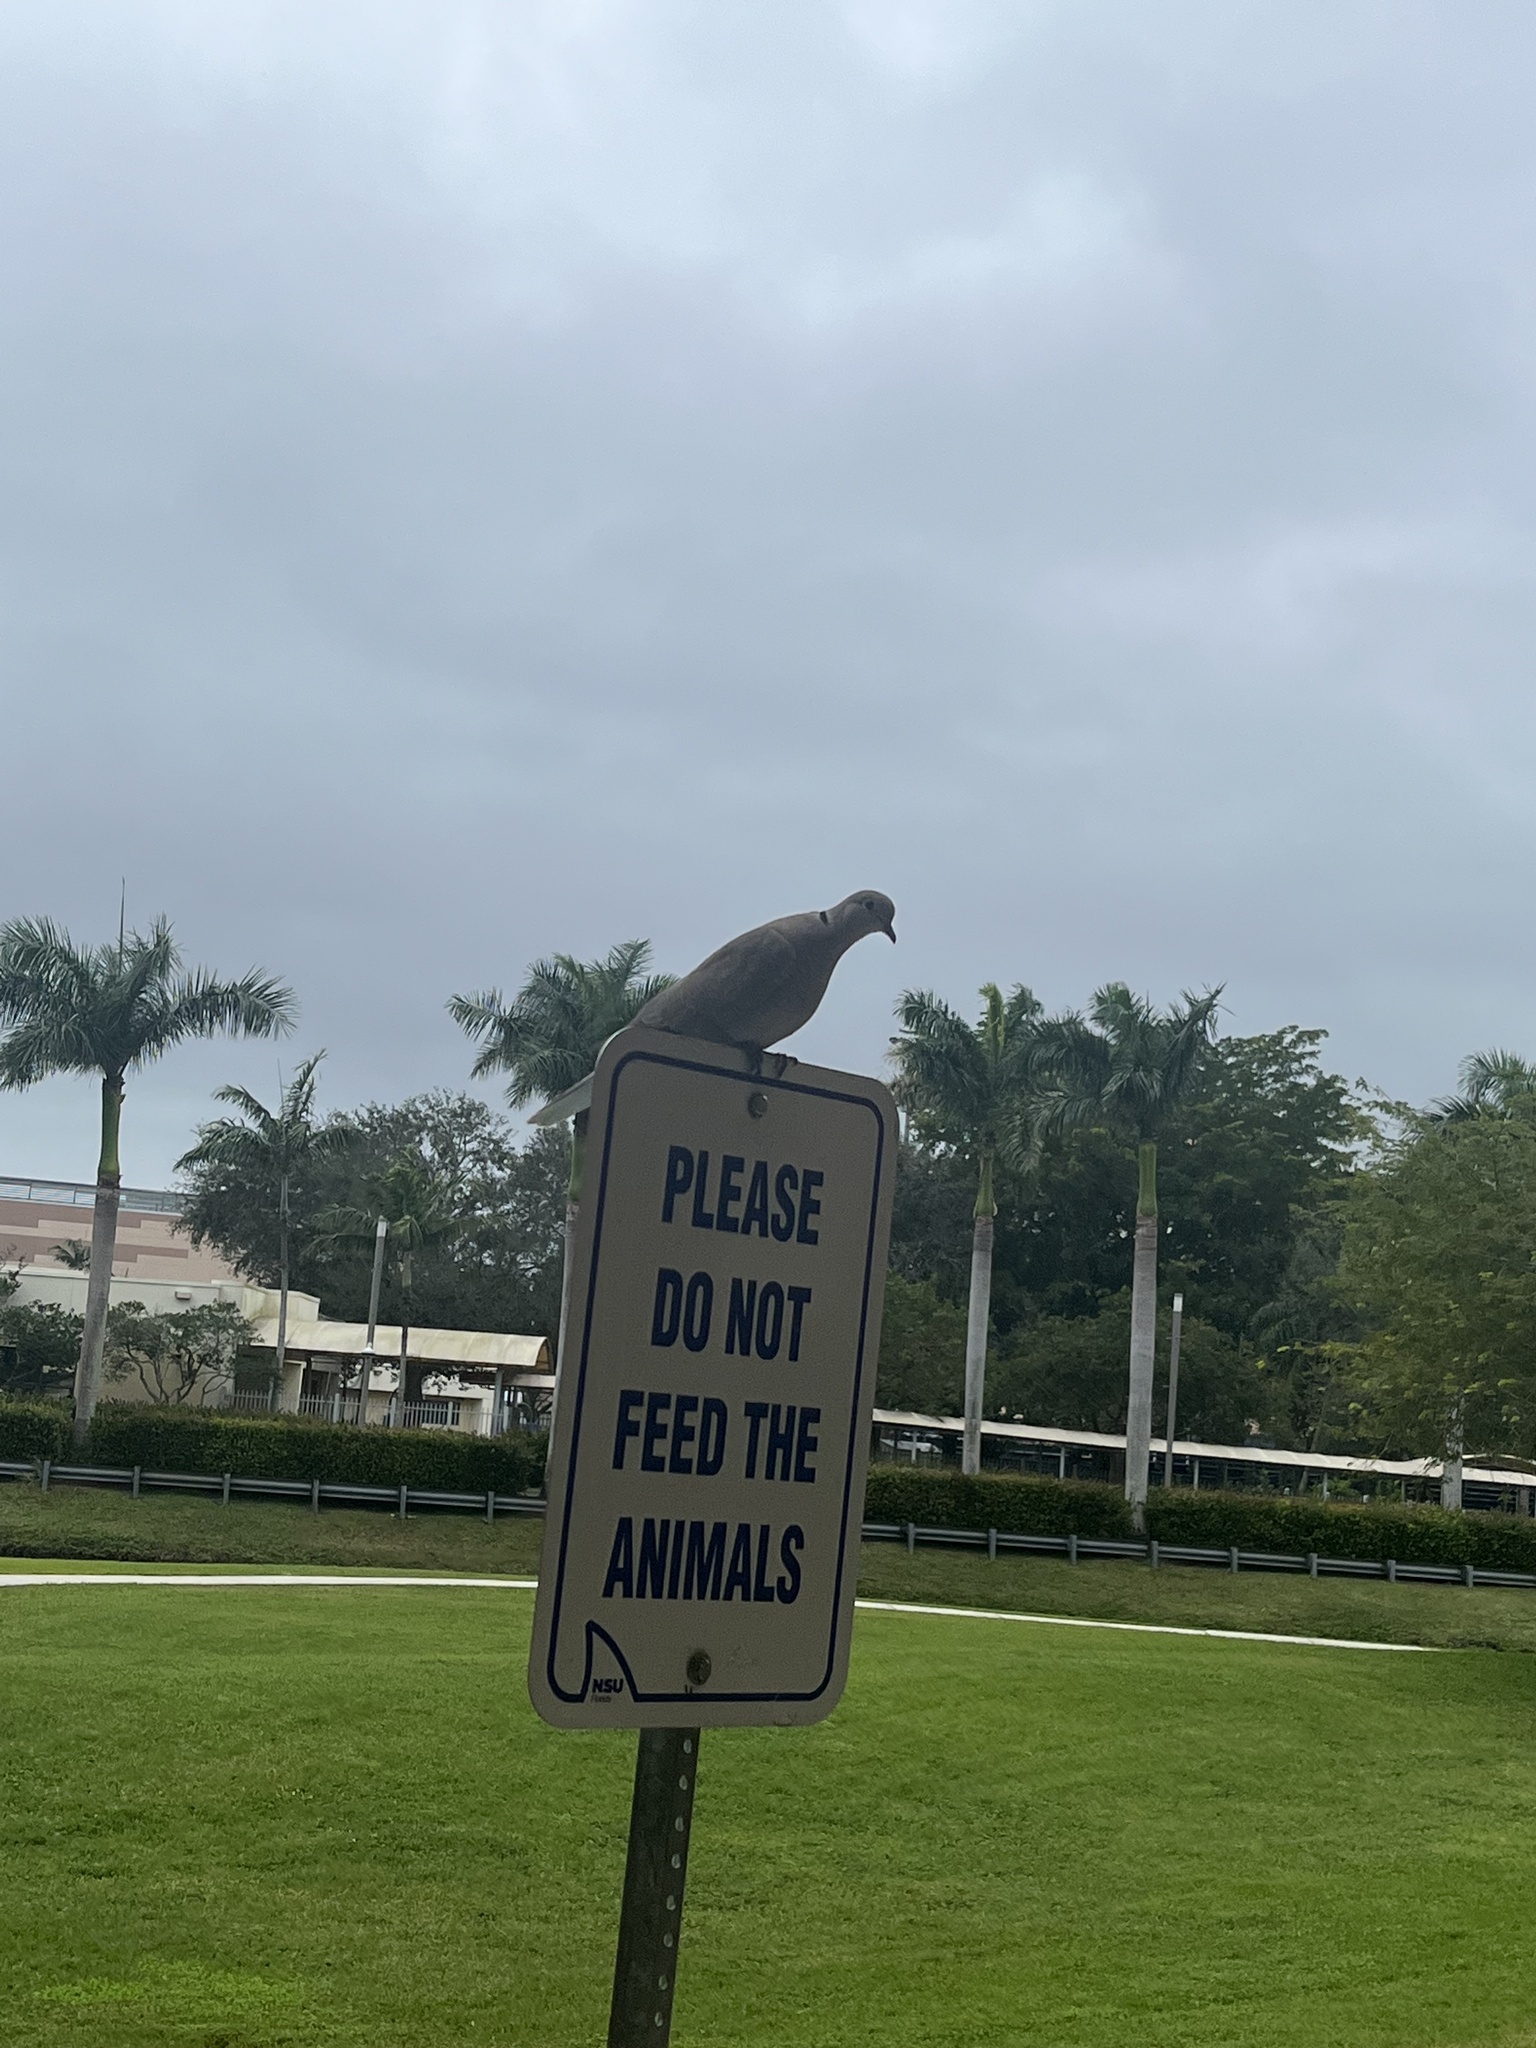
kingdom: Animalia
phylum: Chordata
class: Aves
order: Columbiformes
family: Columbidae
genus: Streptopelia
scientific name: Streptopelia decaocto
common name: Eurasian collared dove
